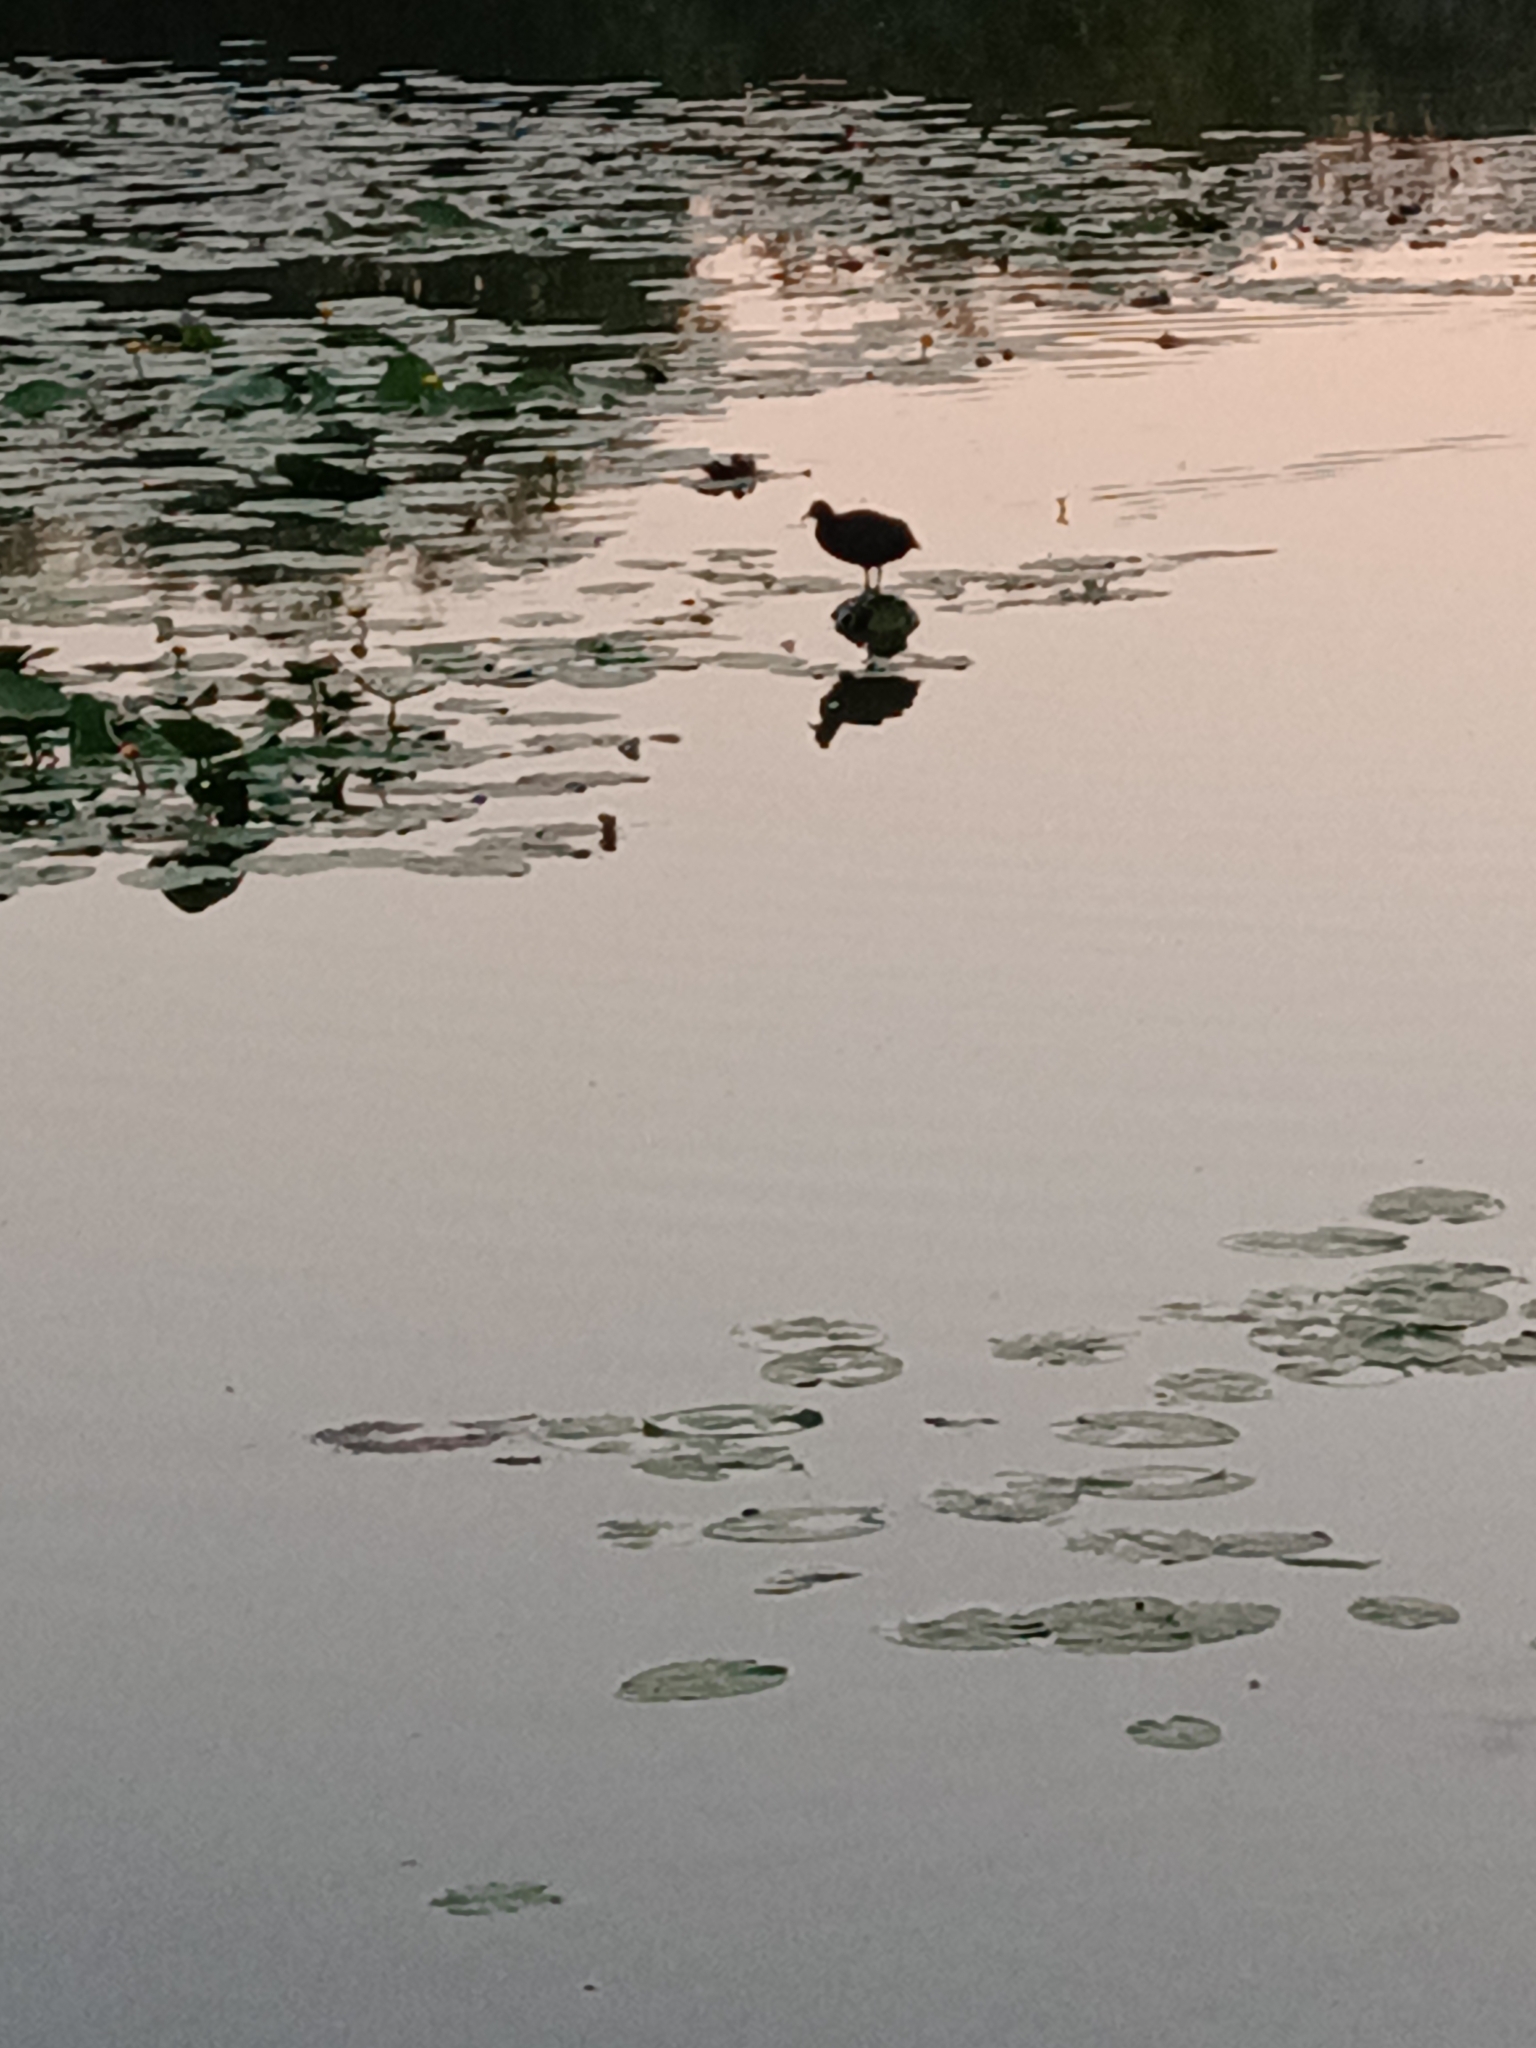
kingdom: Animalia
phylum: Chordata
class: Aves
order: Gruiformes
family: Rallidae
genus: Fulica
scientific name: Fulica atra
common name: Eurasian coot
